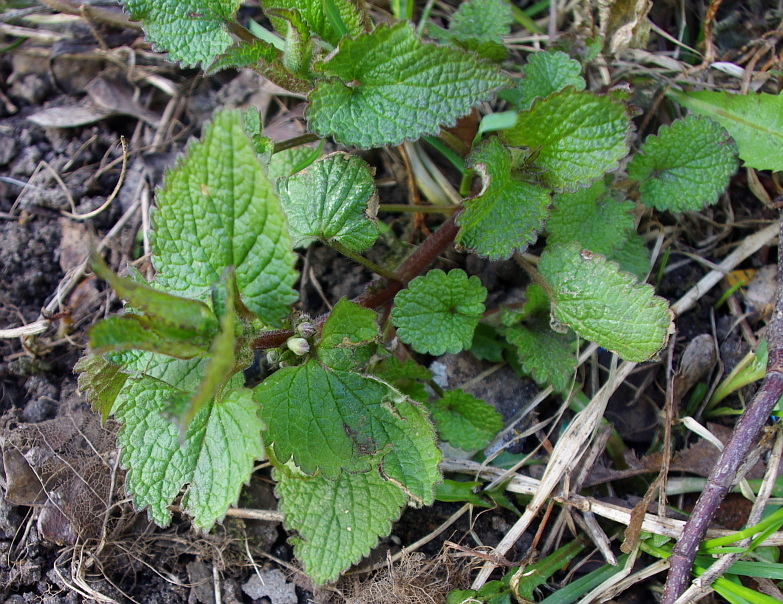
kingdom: Plantae
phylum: Tracheophyta
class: Magnoliopsida
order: Lamiales
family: Lamiaceae
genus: Lamium
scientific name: Lamium album
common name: White dead-nettle
